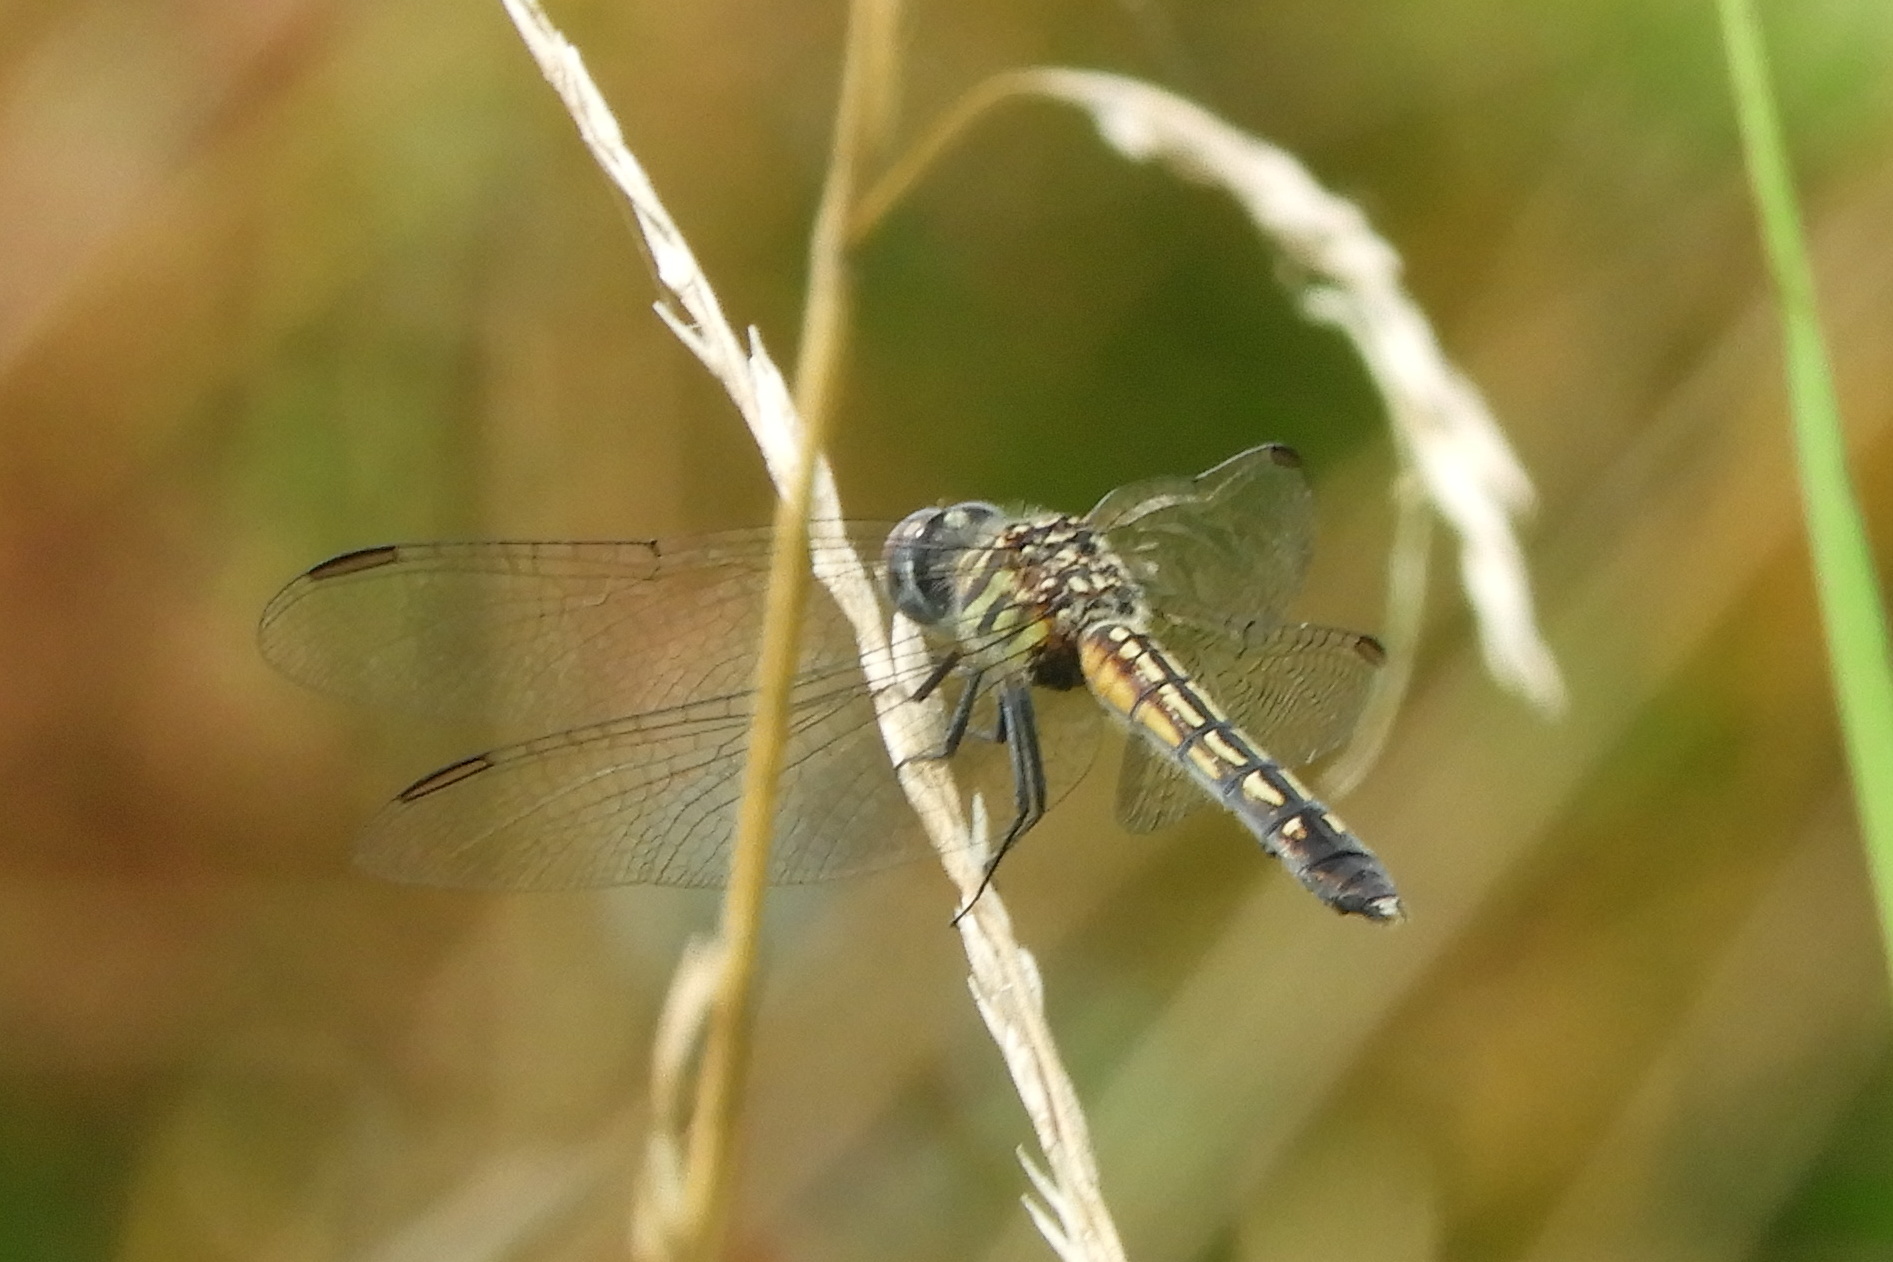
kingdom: Animalia
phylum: Arthropoda
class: Insecta
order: Odonata
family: Libellulidae
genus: Pachydiplax
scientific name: Pachydiplax longipennis
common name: Blue dasher
